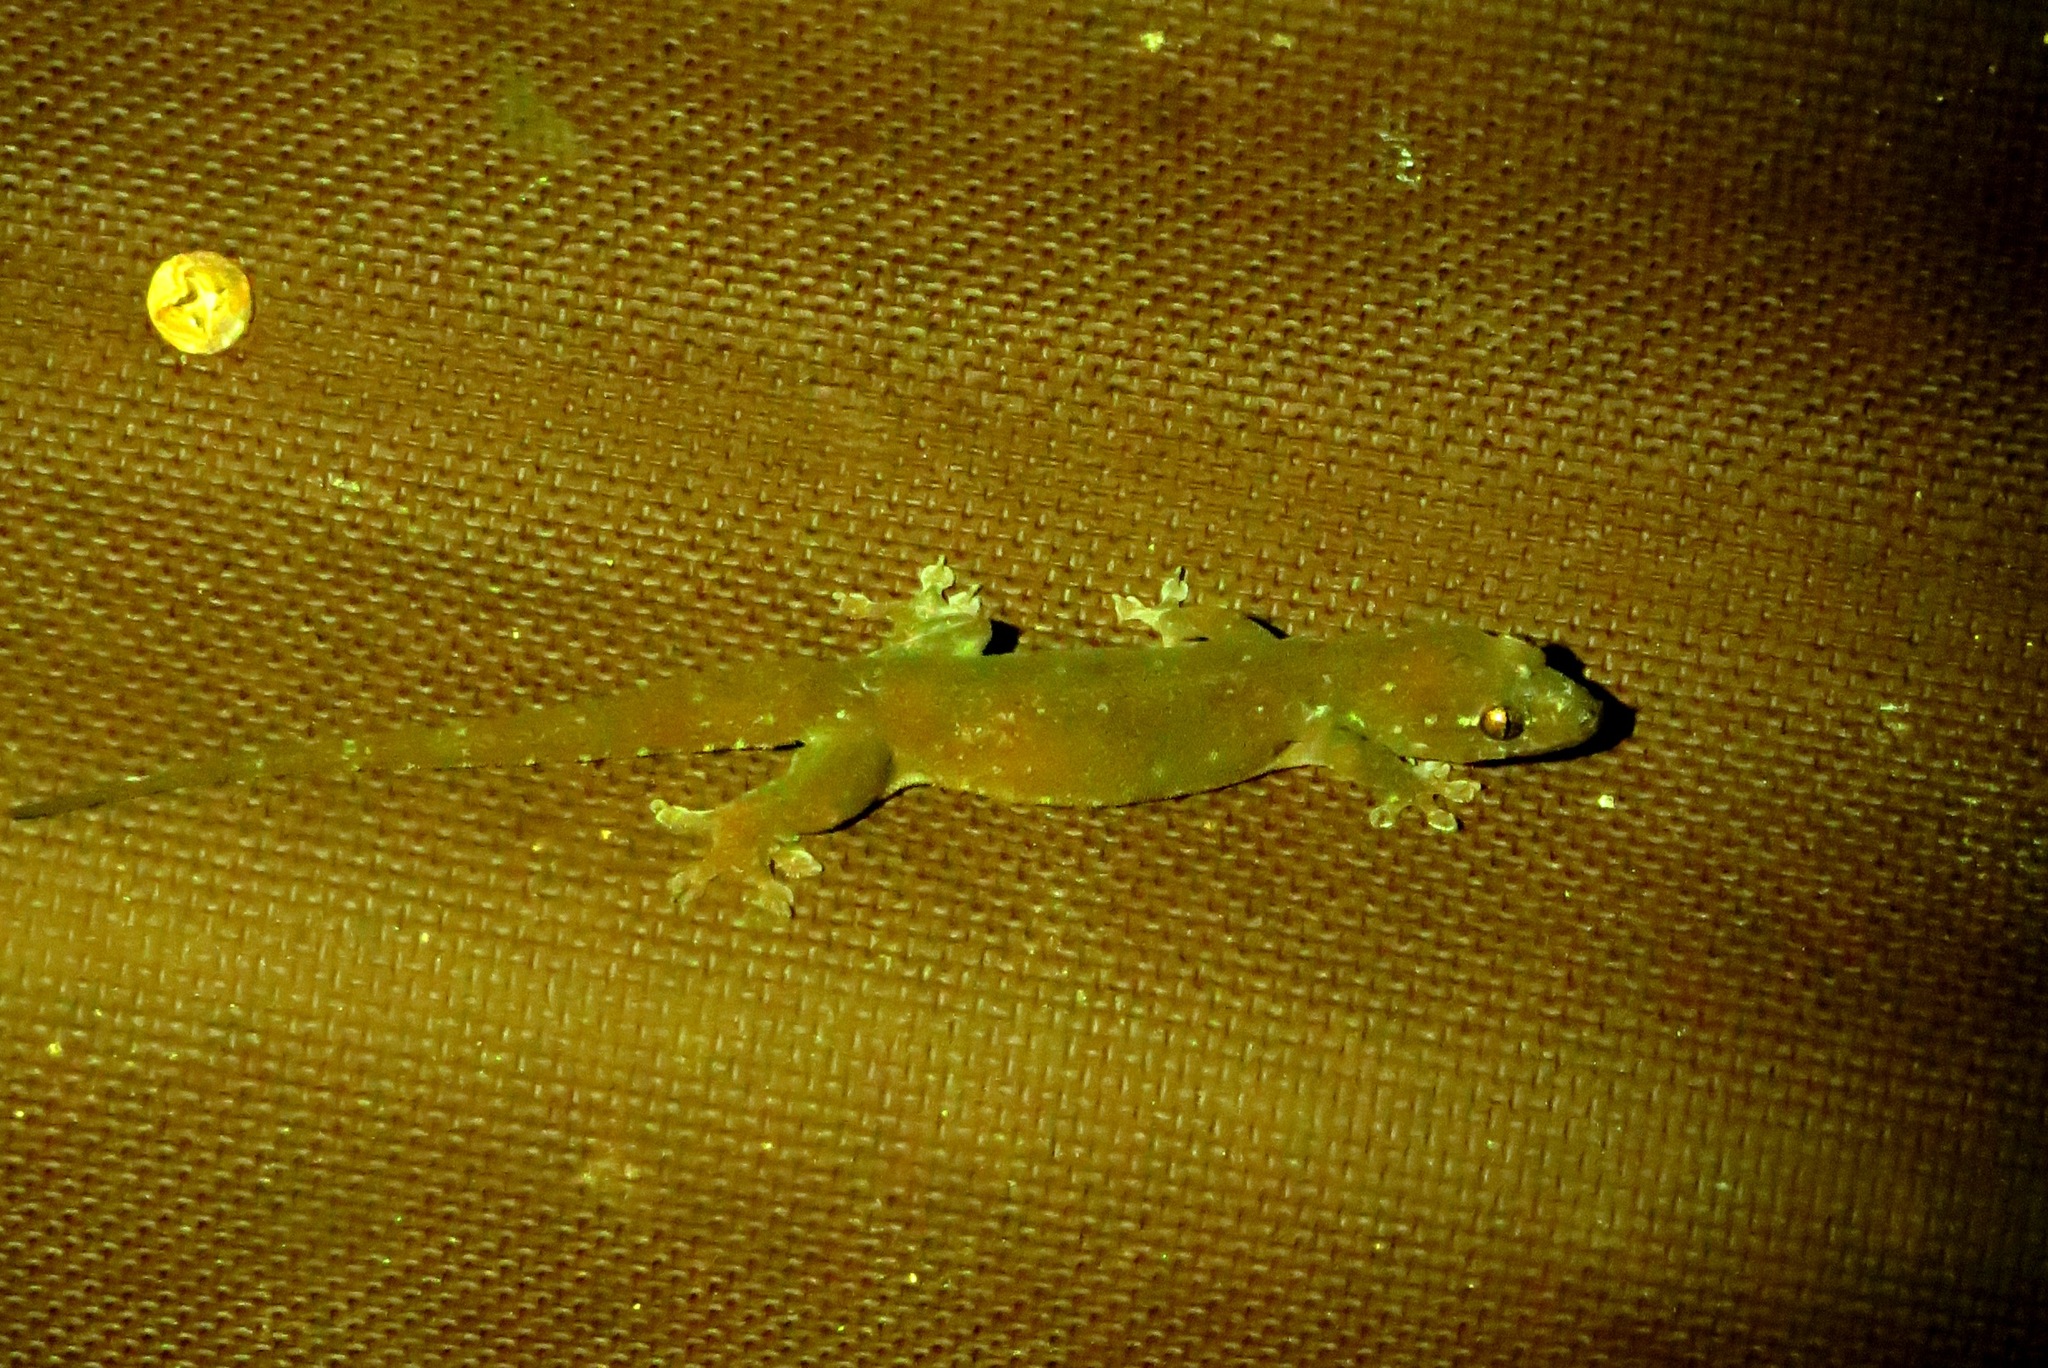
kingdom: Animalia
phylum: Chordata
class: Squamata
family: Gekkonidae
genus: Gehyra
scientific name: Gehyra mutilata
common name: Stump-toed gecko
